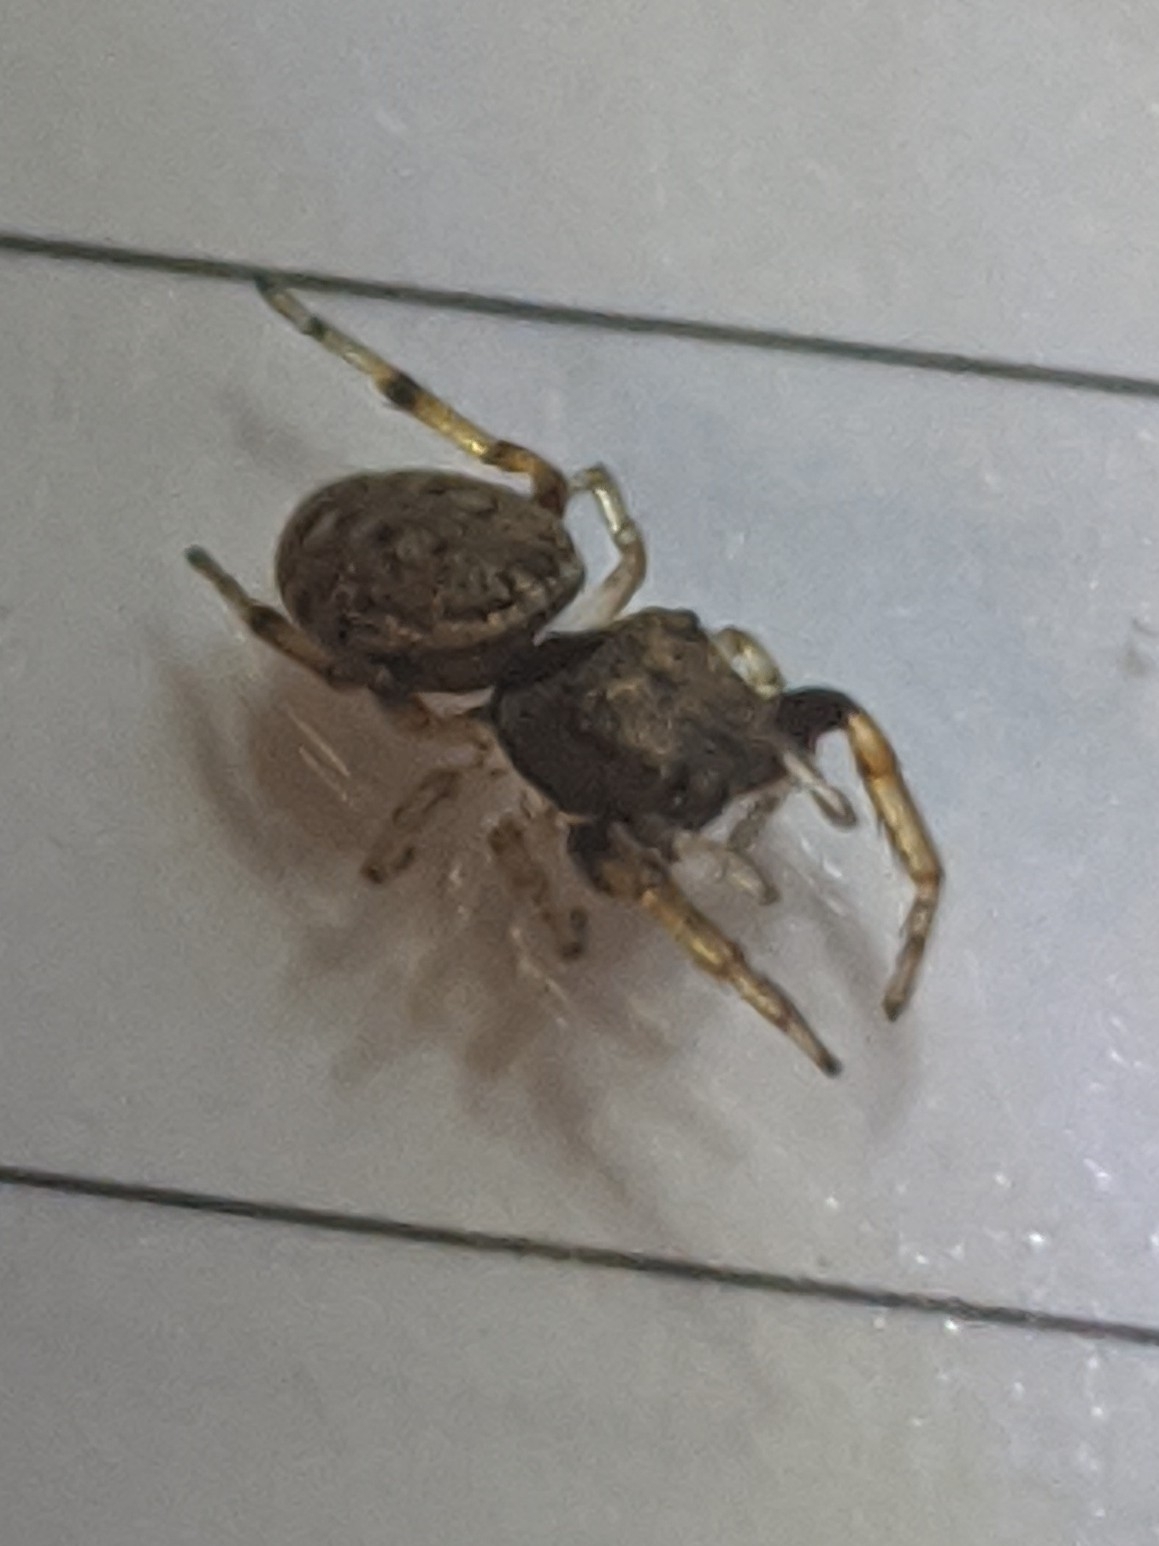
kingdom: Animalia
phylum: Arthropoda
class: Arachnida
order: Araneae
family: Salticidae
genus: Zygoballus
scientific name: Zygoballus rufipes
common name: Jumping spiders
